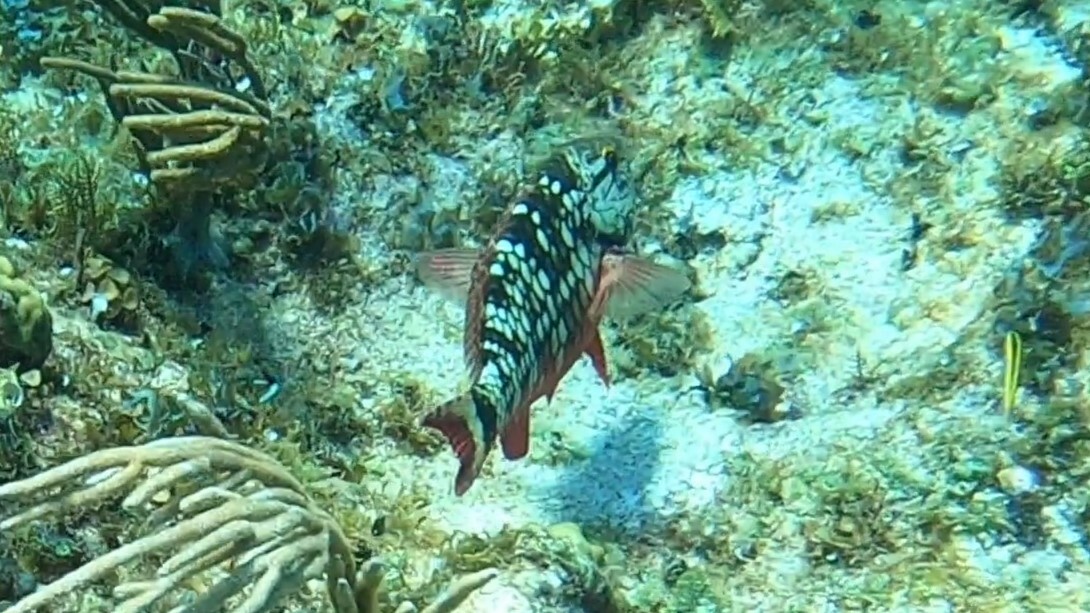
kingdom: Animalia
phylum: Chordata
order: Perciformes
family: Scaridae
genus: Sparisoma
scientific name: Sparisoma viride
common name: Stoplight parrotfish
